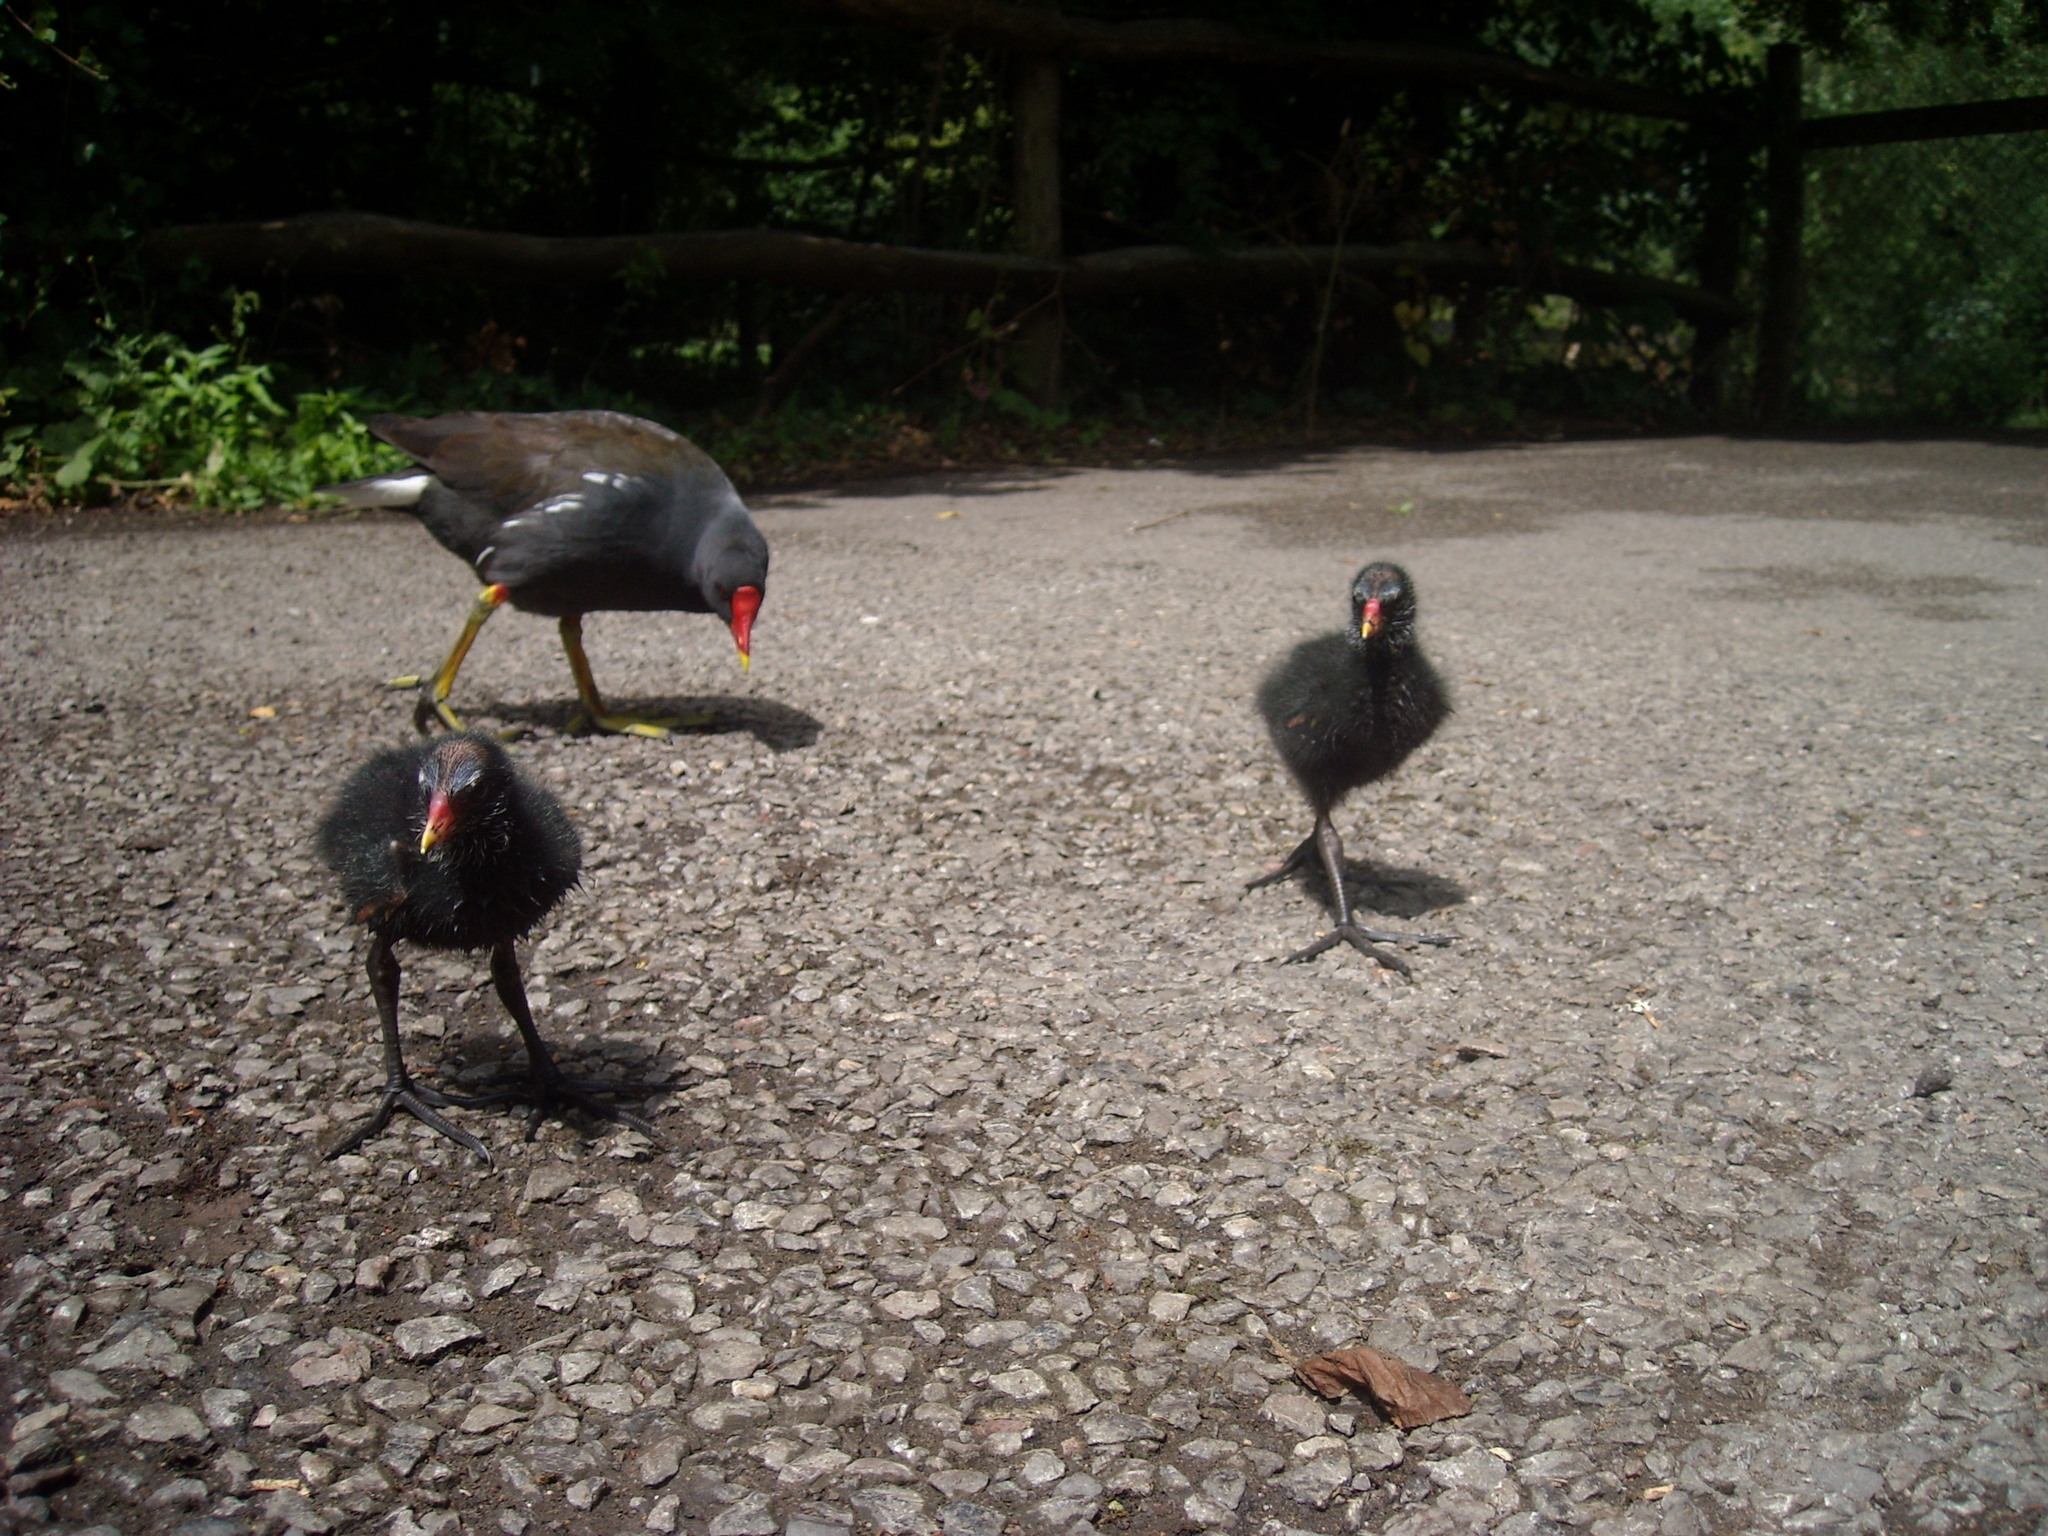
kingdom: Animalia
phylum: Chordata
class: Aves
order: Gruiformes
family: Rallidae
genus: Gallinula
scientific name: Gallinula chloropus
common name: Common moorhen
